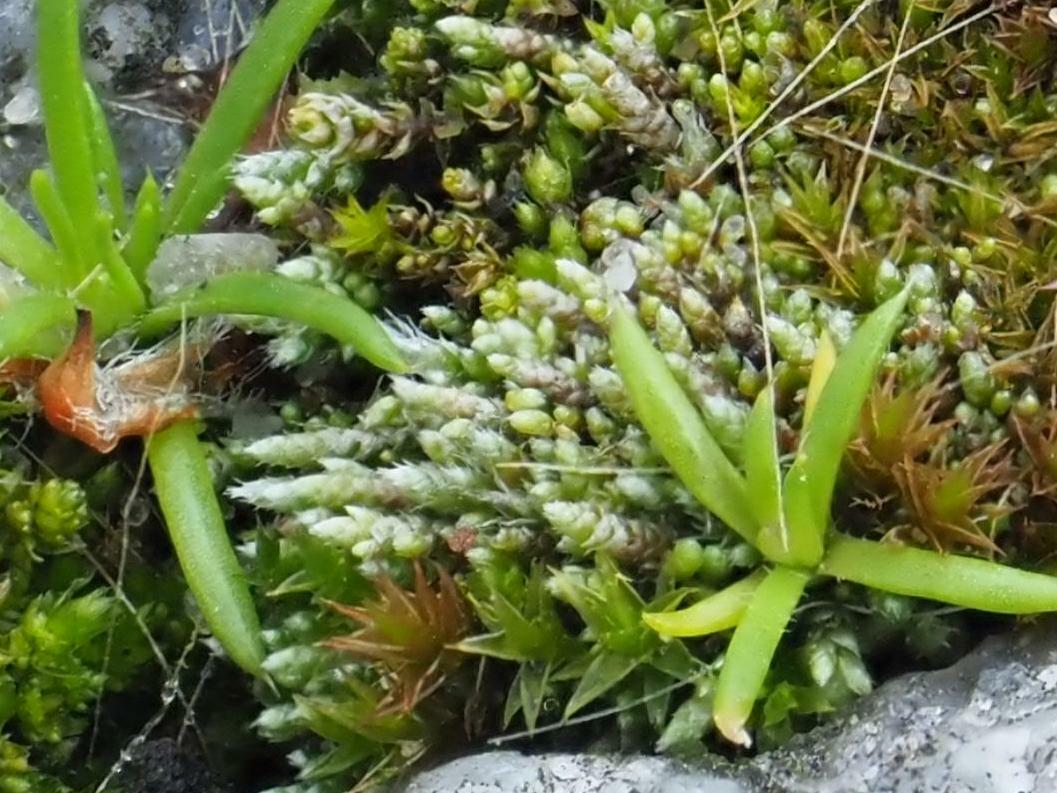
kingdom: Plantae
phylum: Bryophyta
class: Bryopsida
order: Bryales
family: Bryaceae
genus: Bryum
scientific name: Bryum argenteum
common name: Silver-moss
